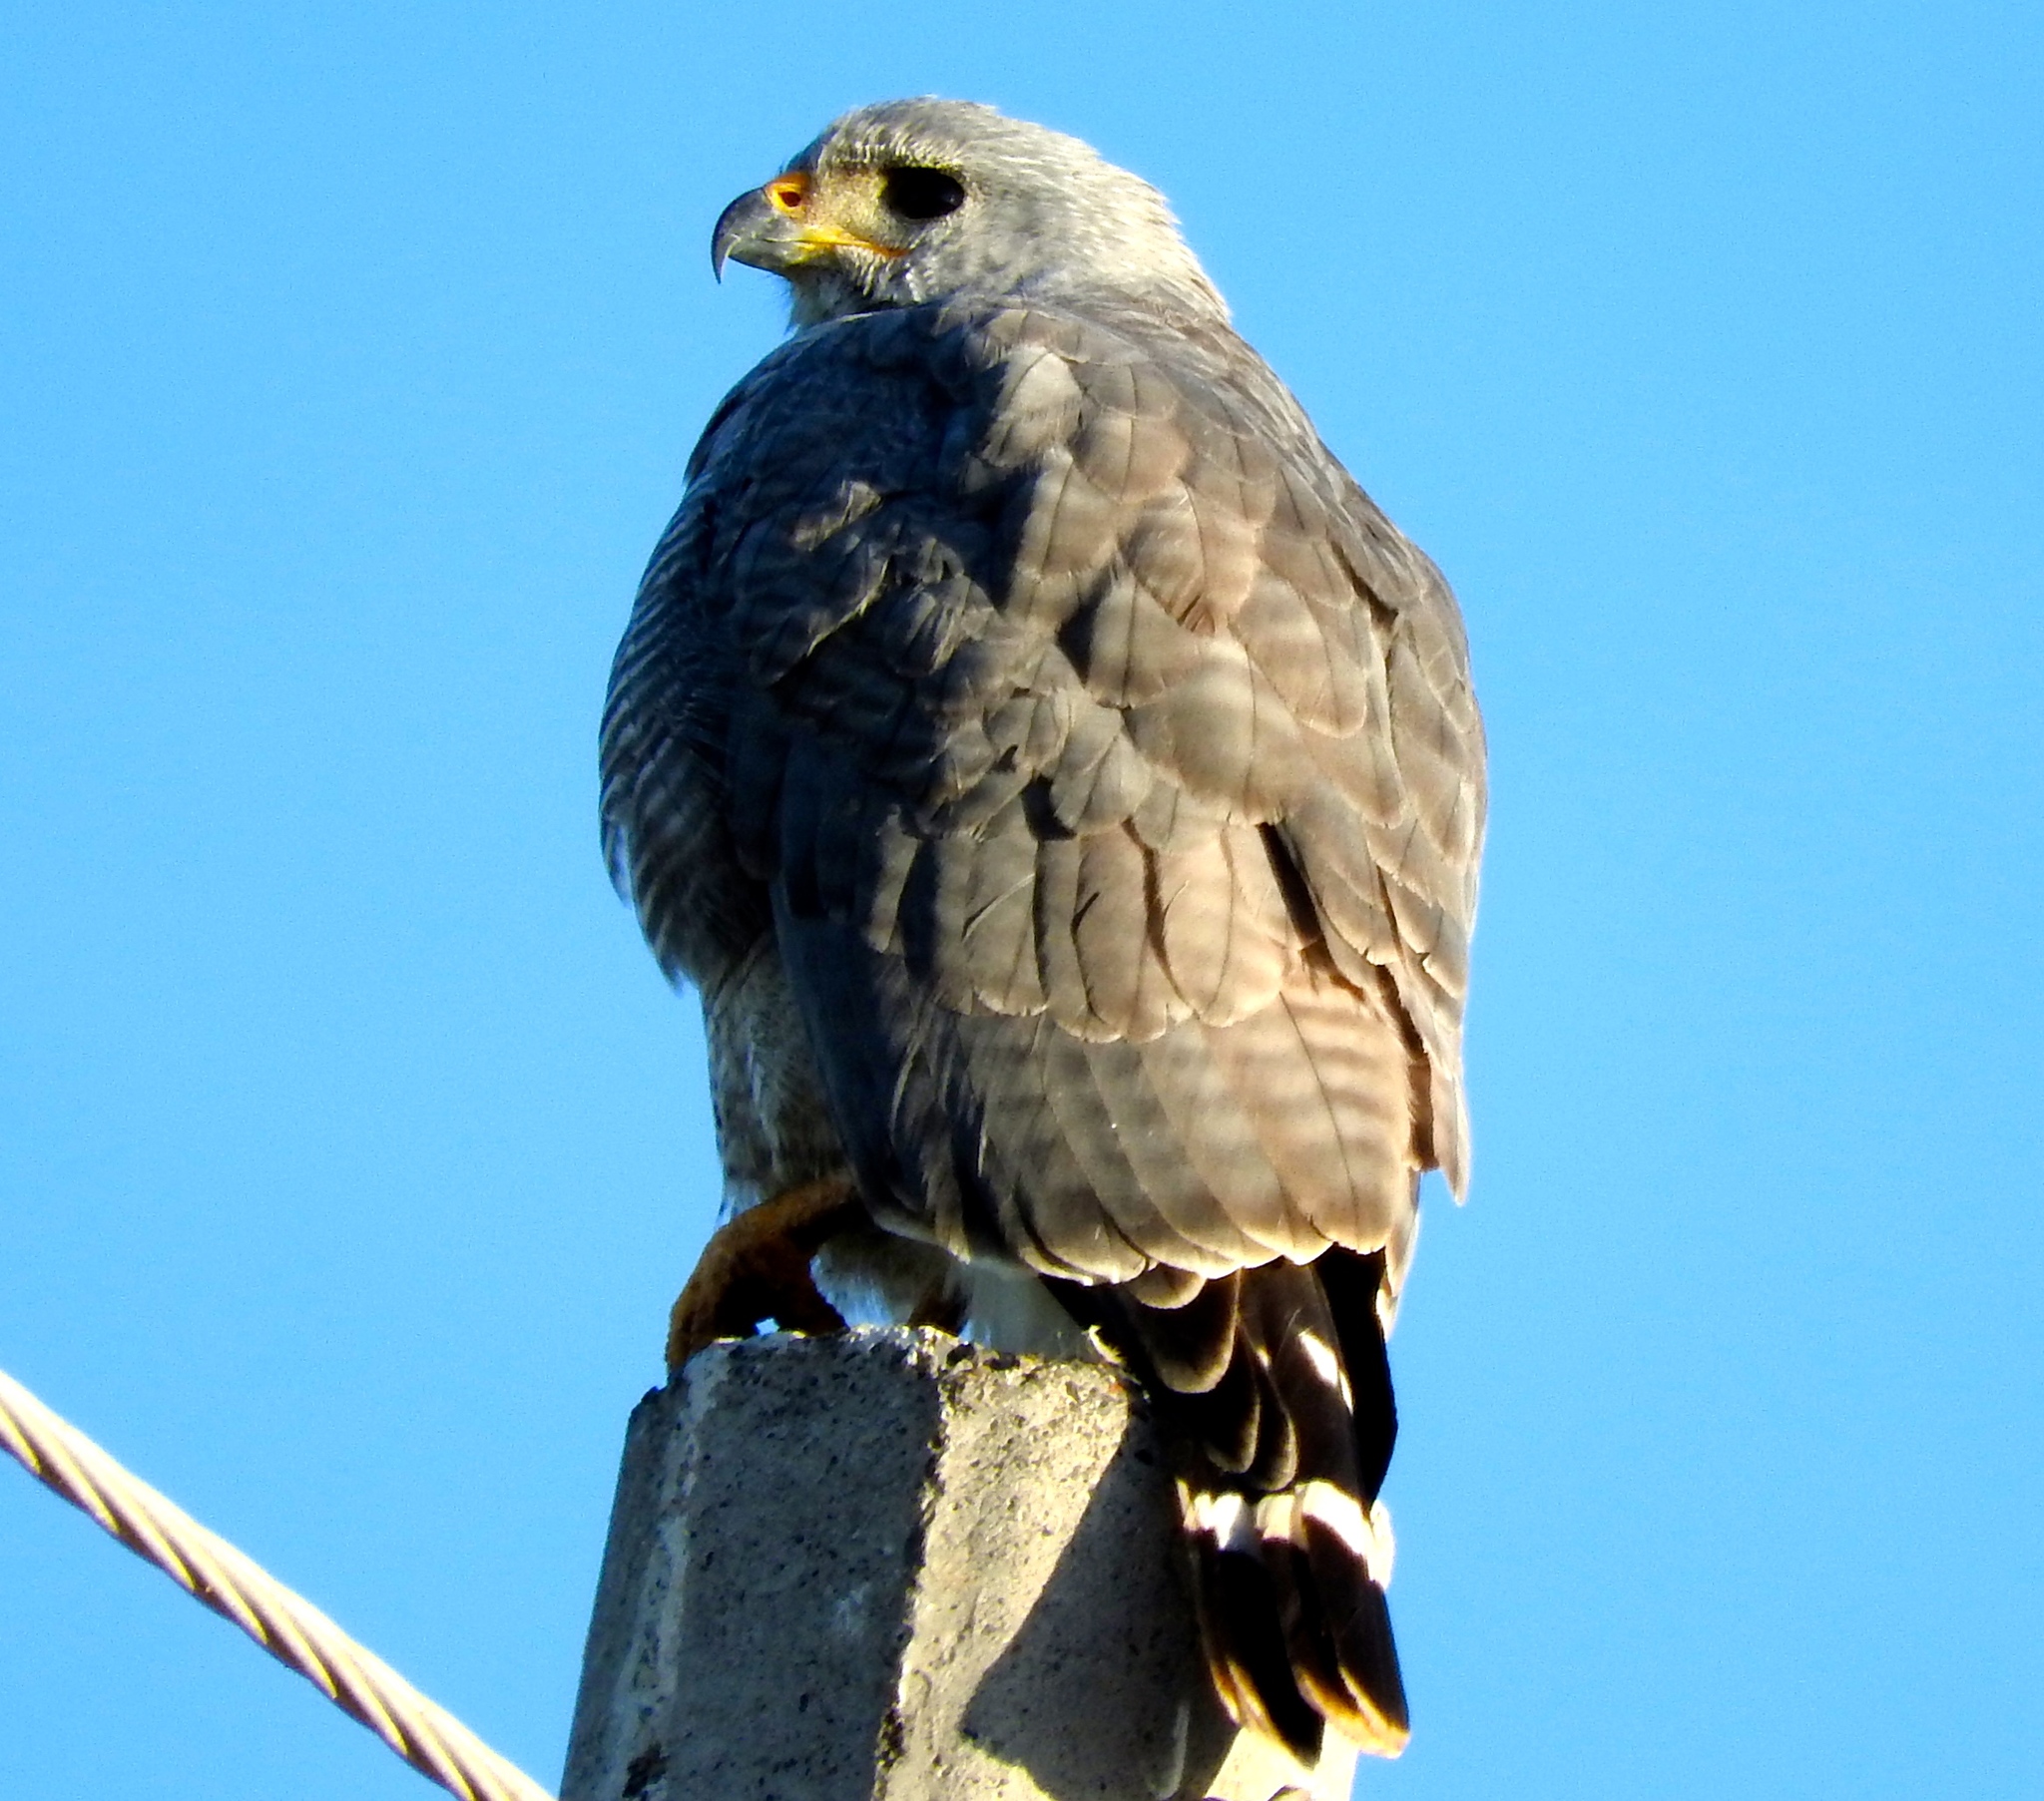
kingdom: Animalia
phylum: Chordata
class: Aves
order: Accipitriformes
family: Accipitridae
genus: Buteo
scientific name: Buteo nitidus
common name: Grey-lined hawk
